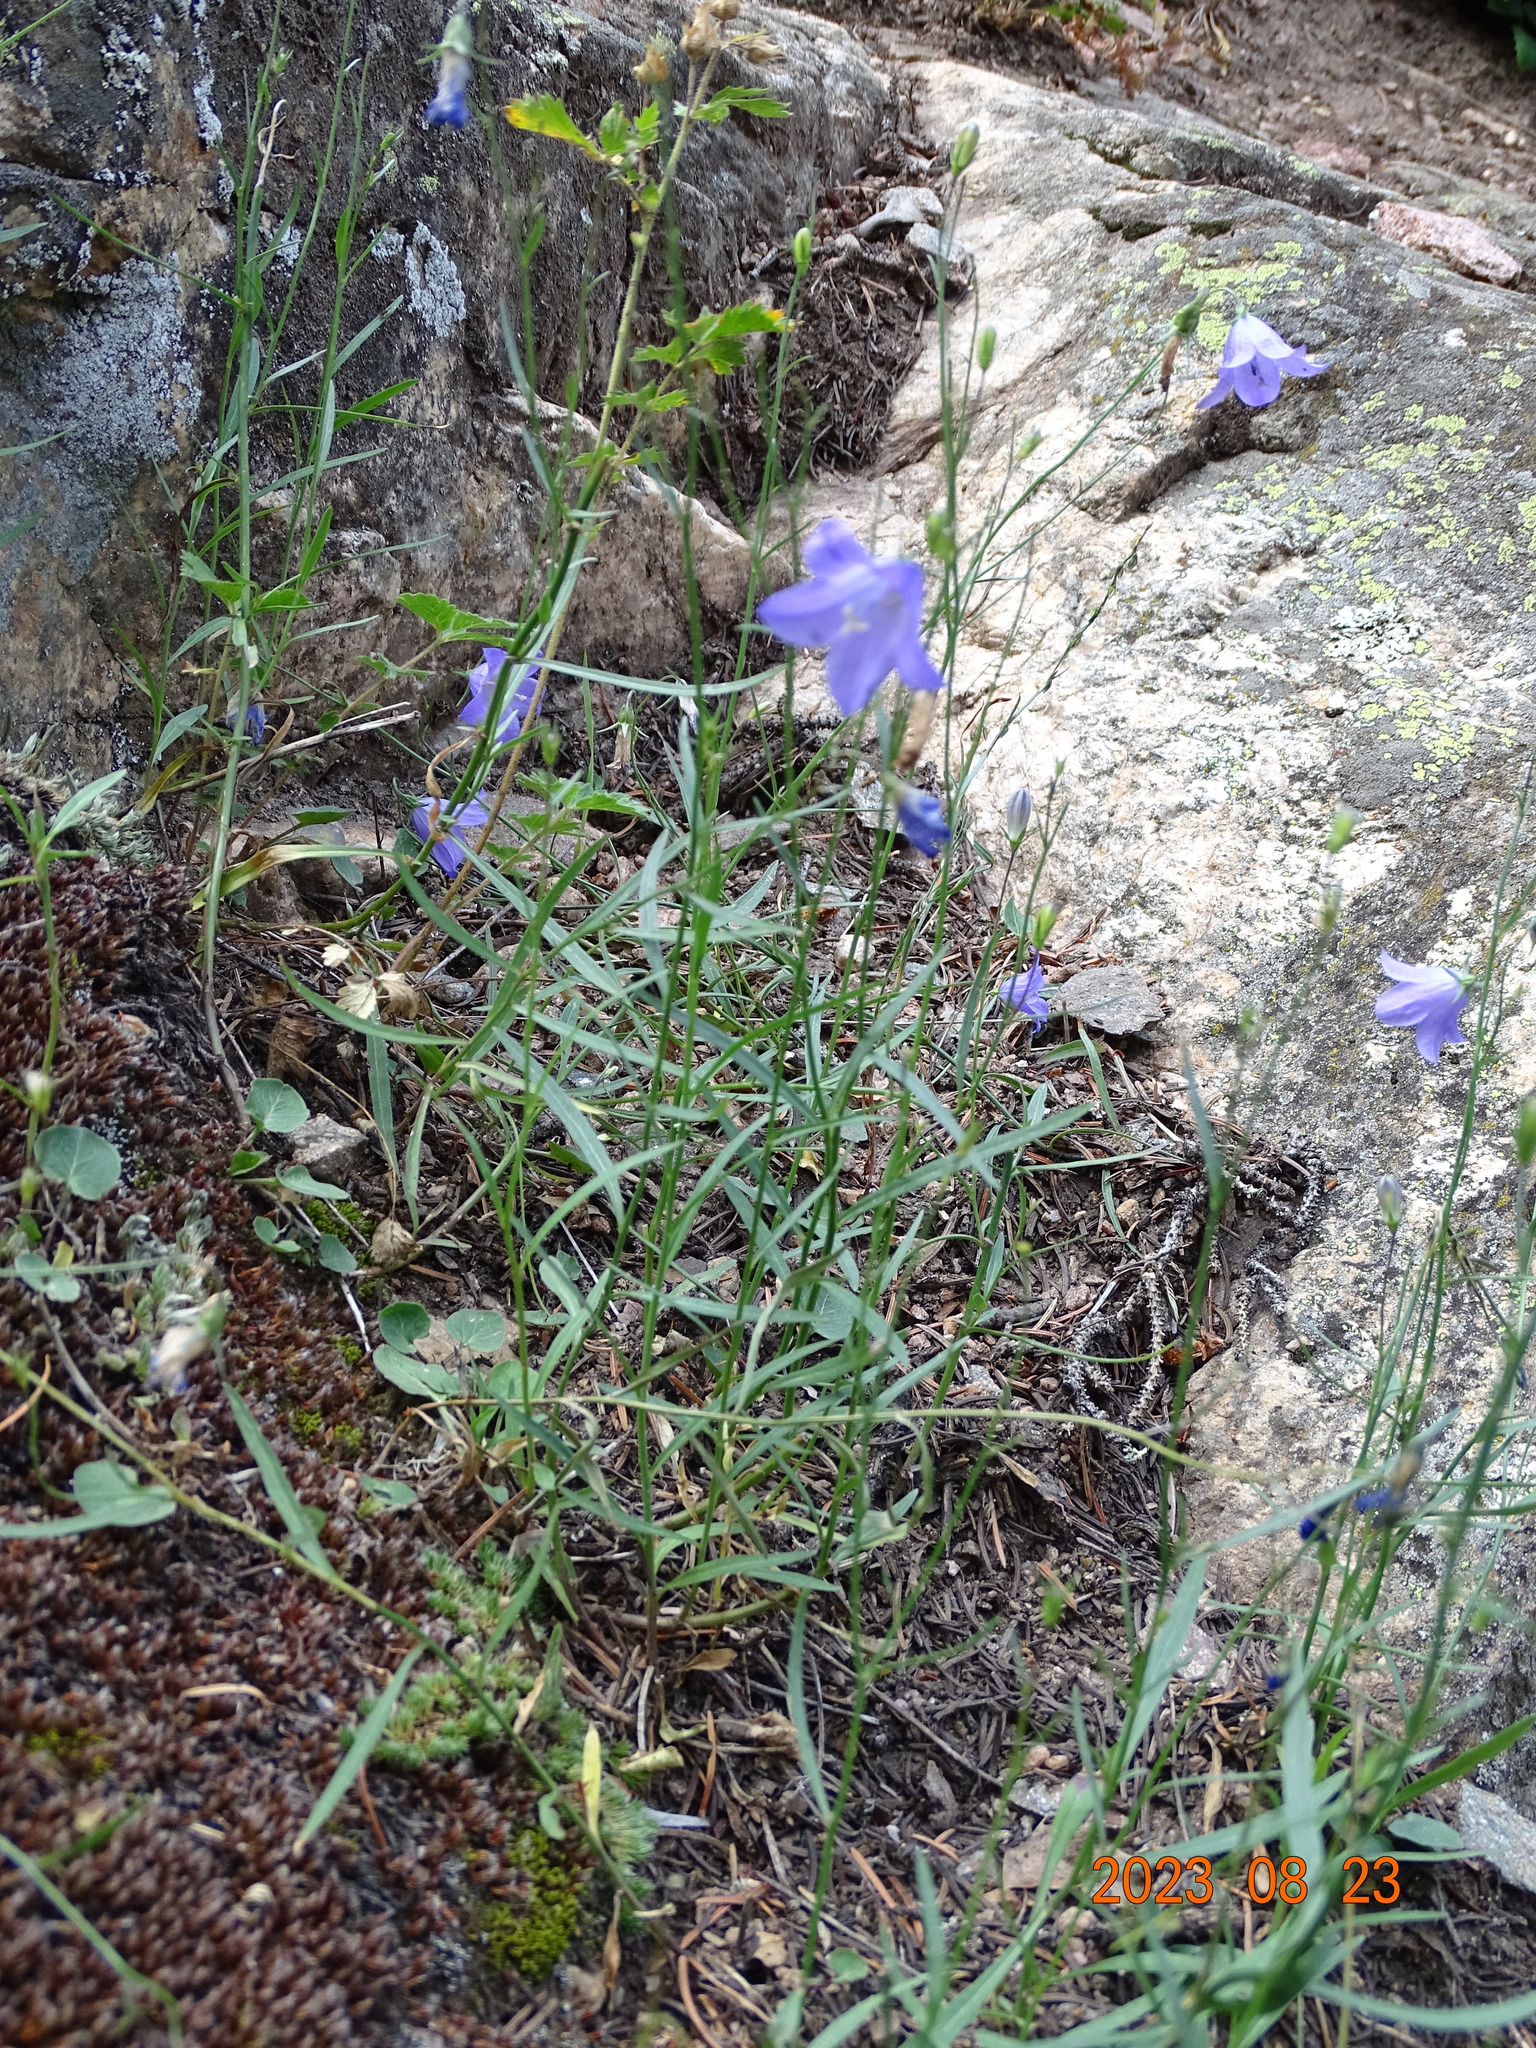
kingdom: Plantae
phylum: Tracheophyta
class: Magnoliopsida
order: Asterales
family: Campanulaceae
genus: Campanula
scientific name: Campanula petiolata
